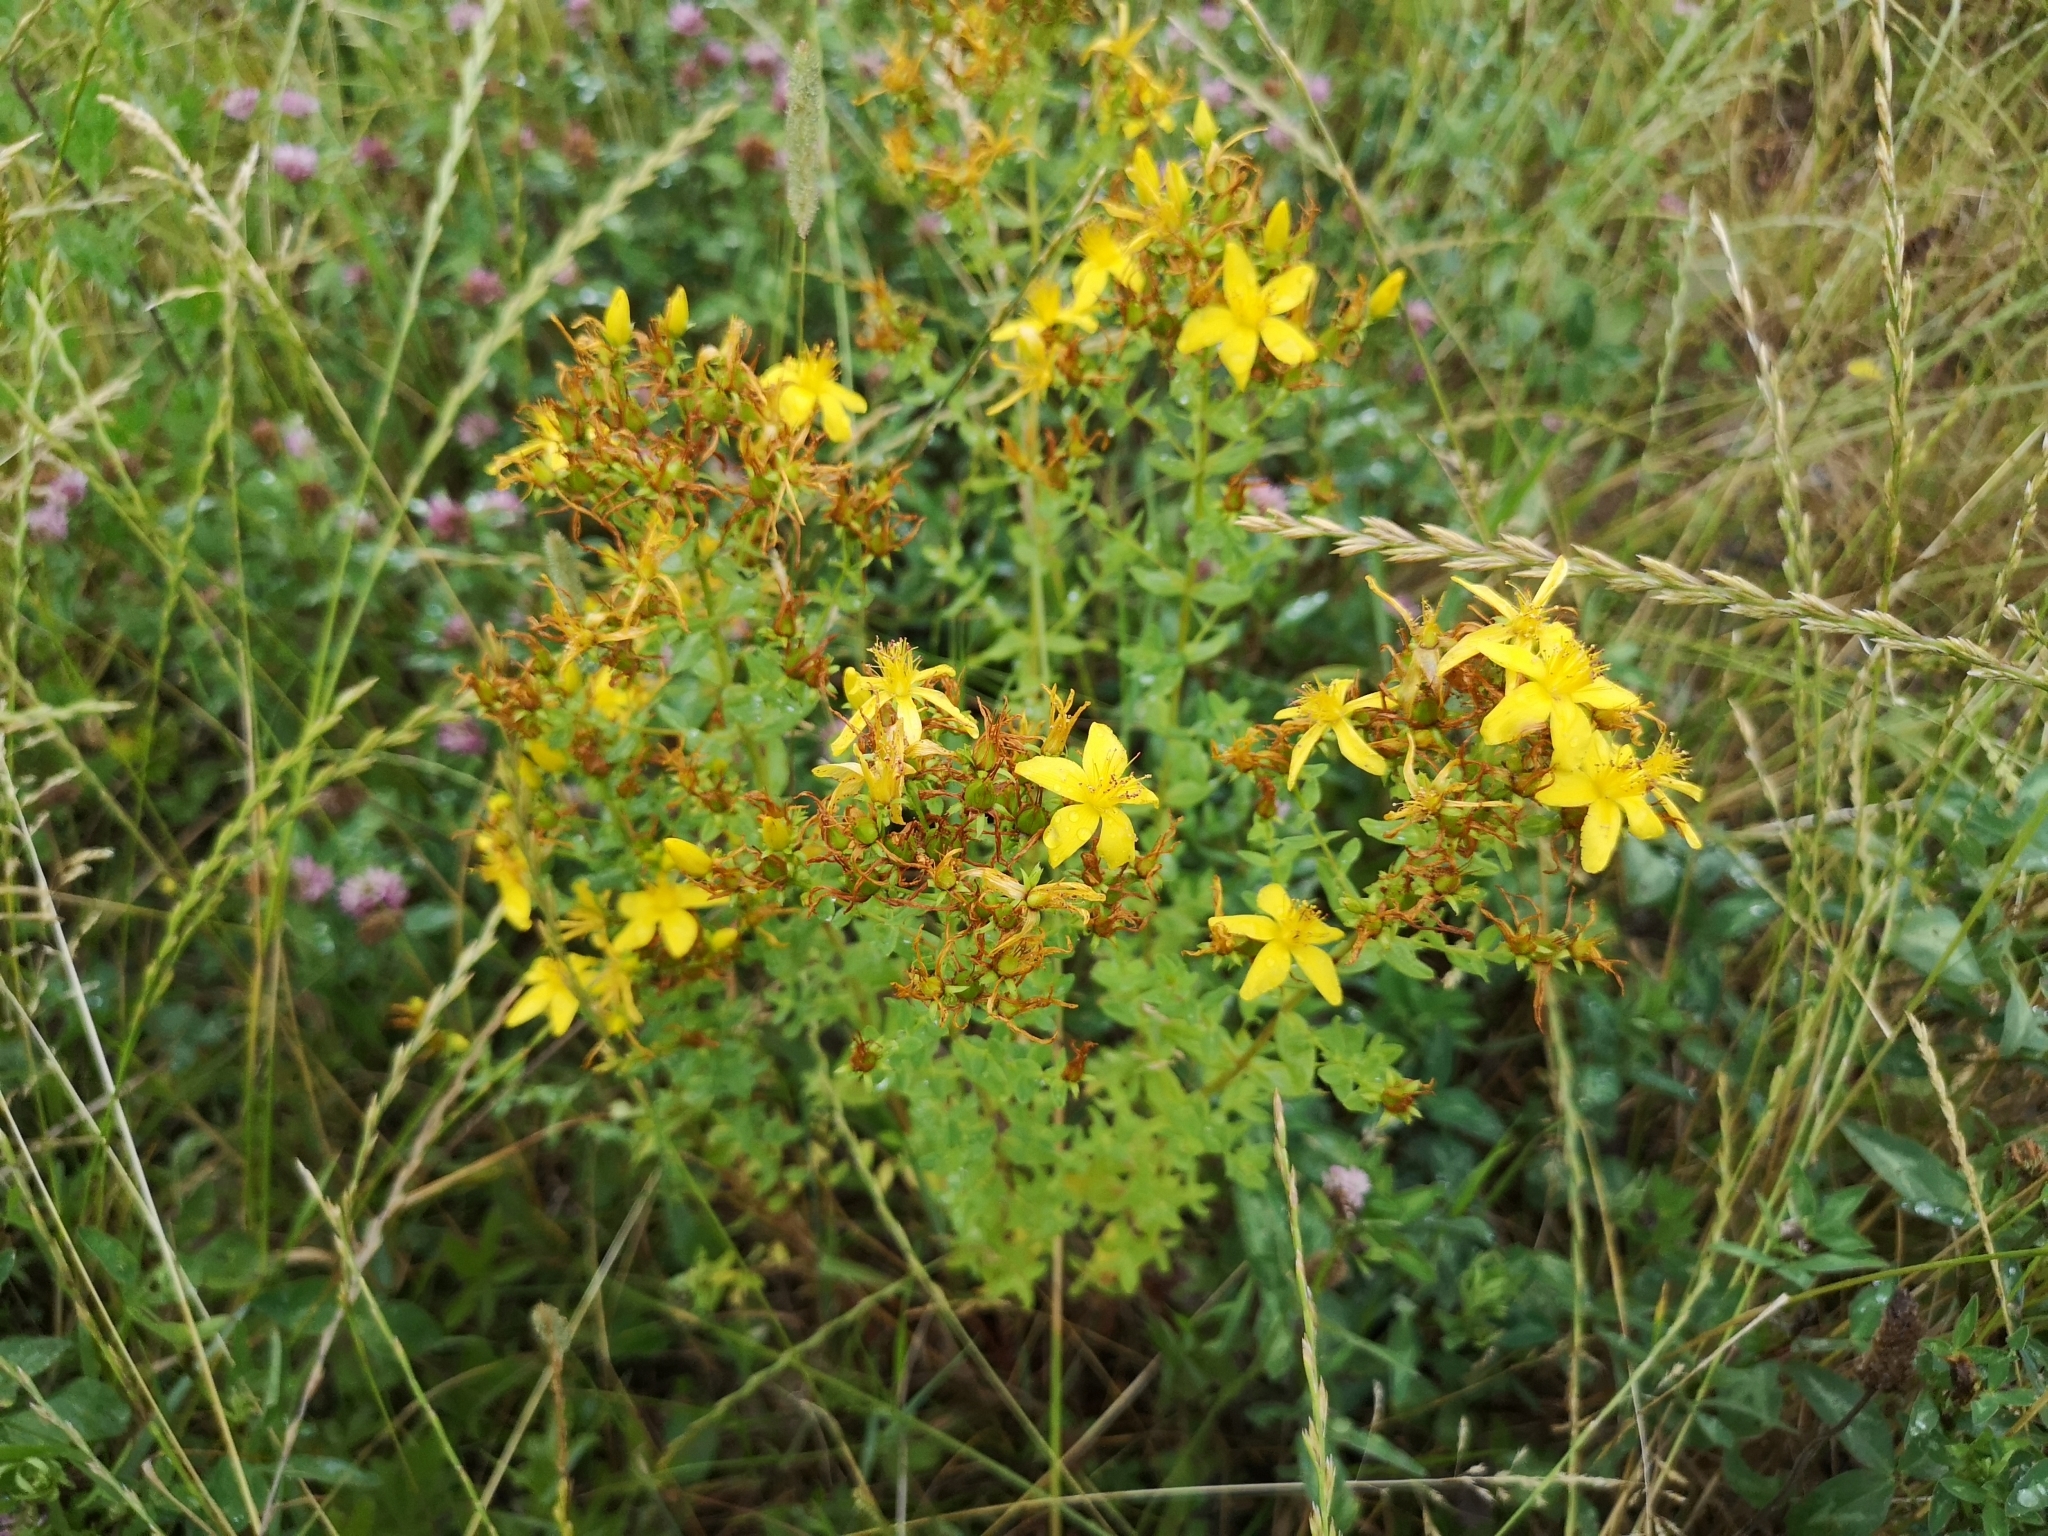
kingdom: Plantae
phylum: Tracheophyta
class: Magnoliopsida
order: Malpighiales
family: Hypericaceae
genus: Hypericum
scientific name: Hypericum perforatum
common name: Common st. johnswort
